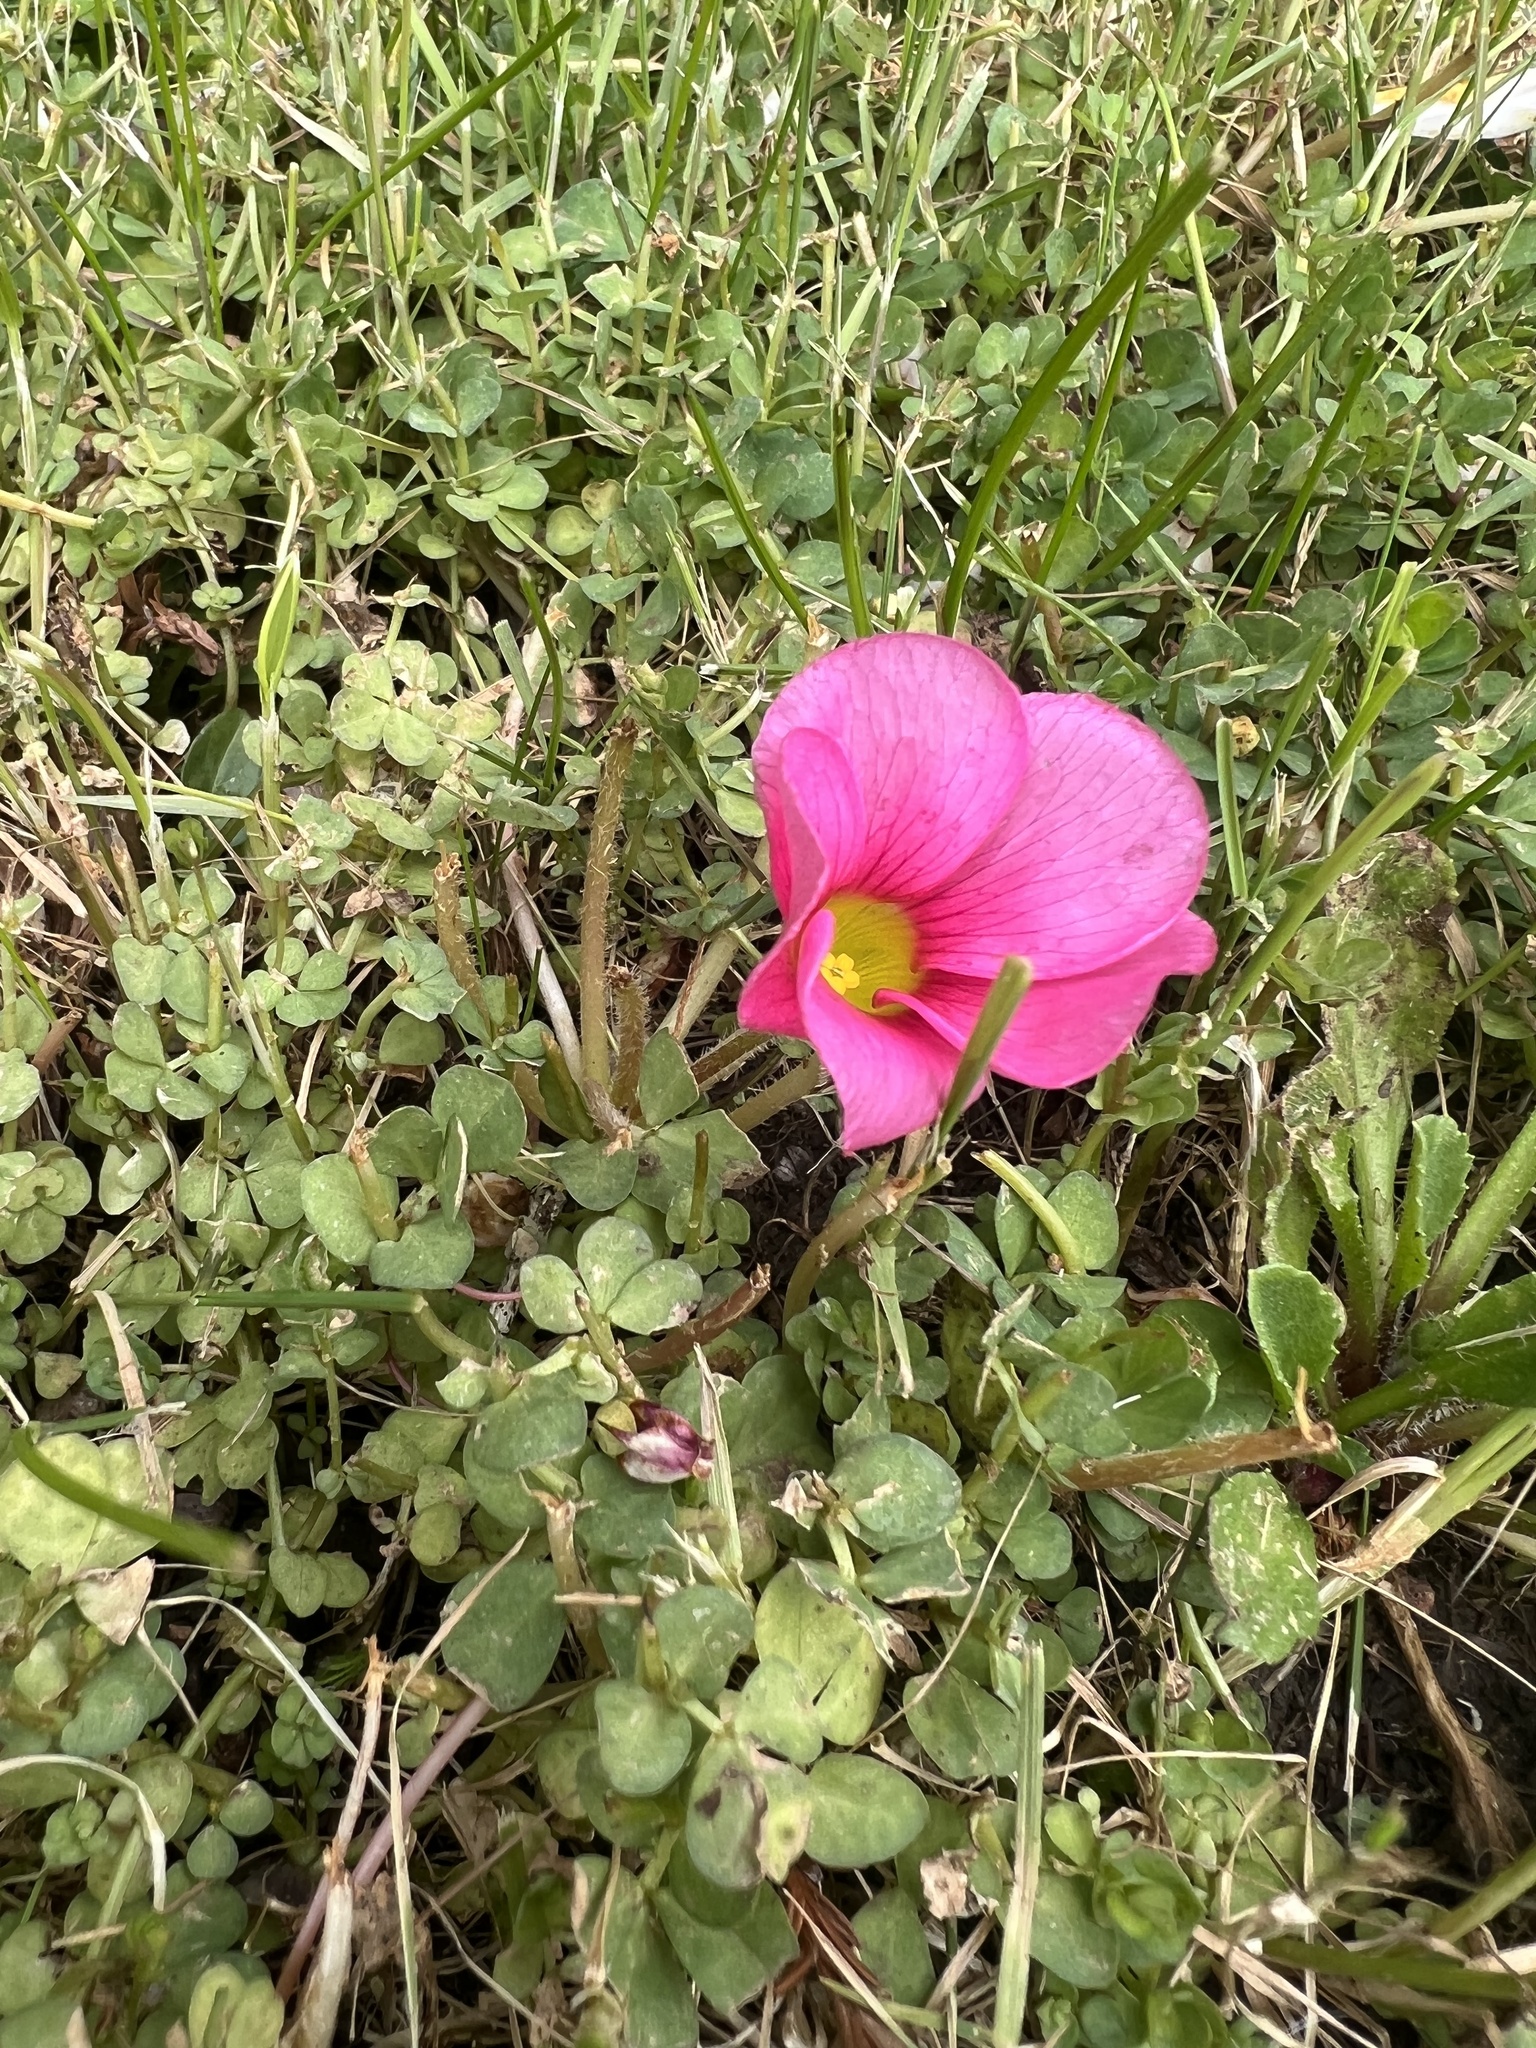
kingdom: Plantae
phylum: Tracheophyta
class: Magnoliopsida
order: Oxalidales
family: Oxalidaceae
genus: Oxalis
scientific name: Oxalis purpurea
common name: Purple woodsorrel
